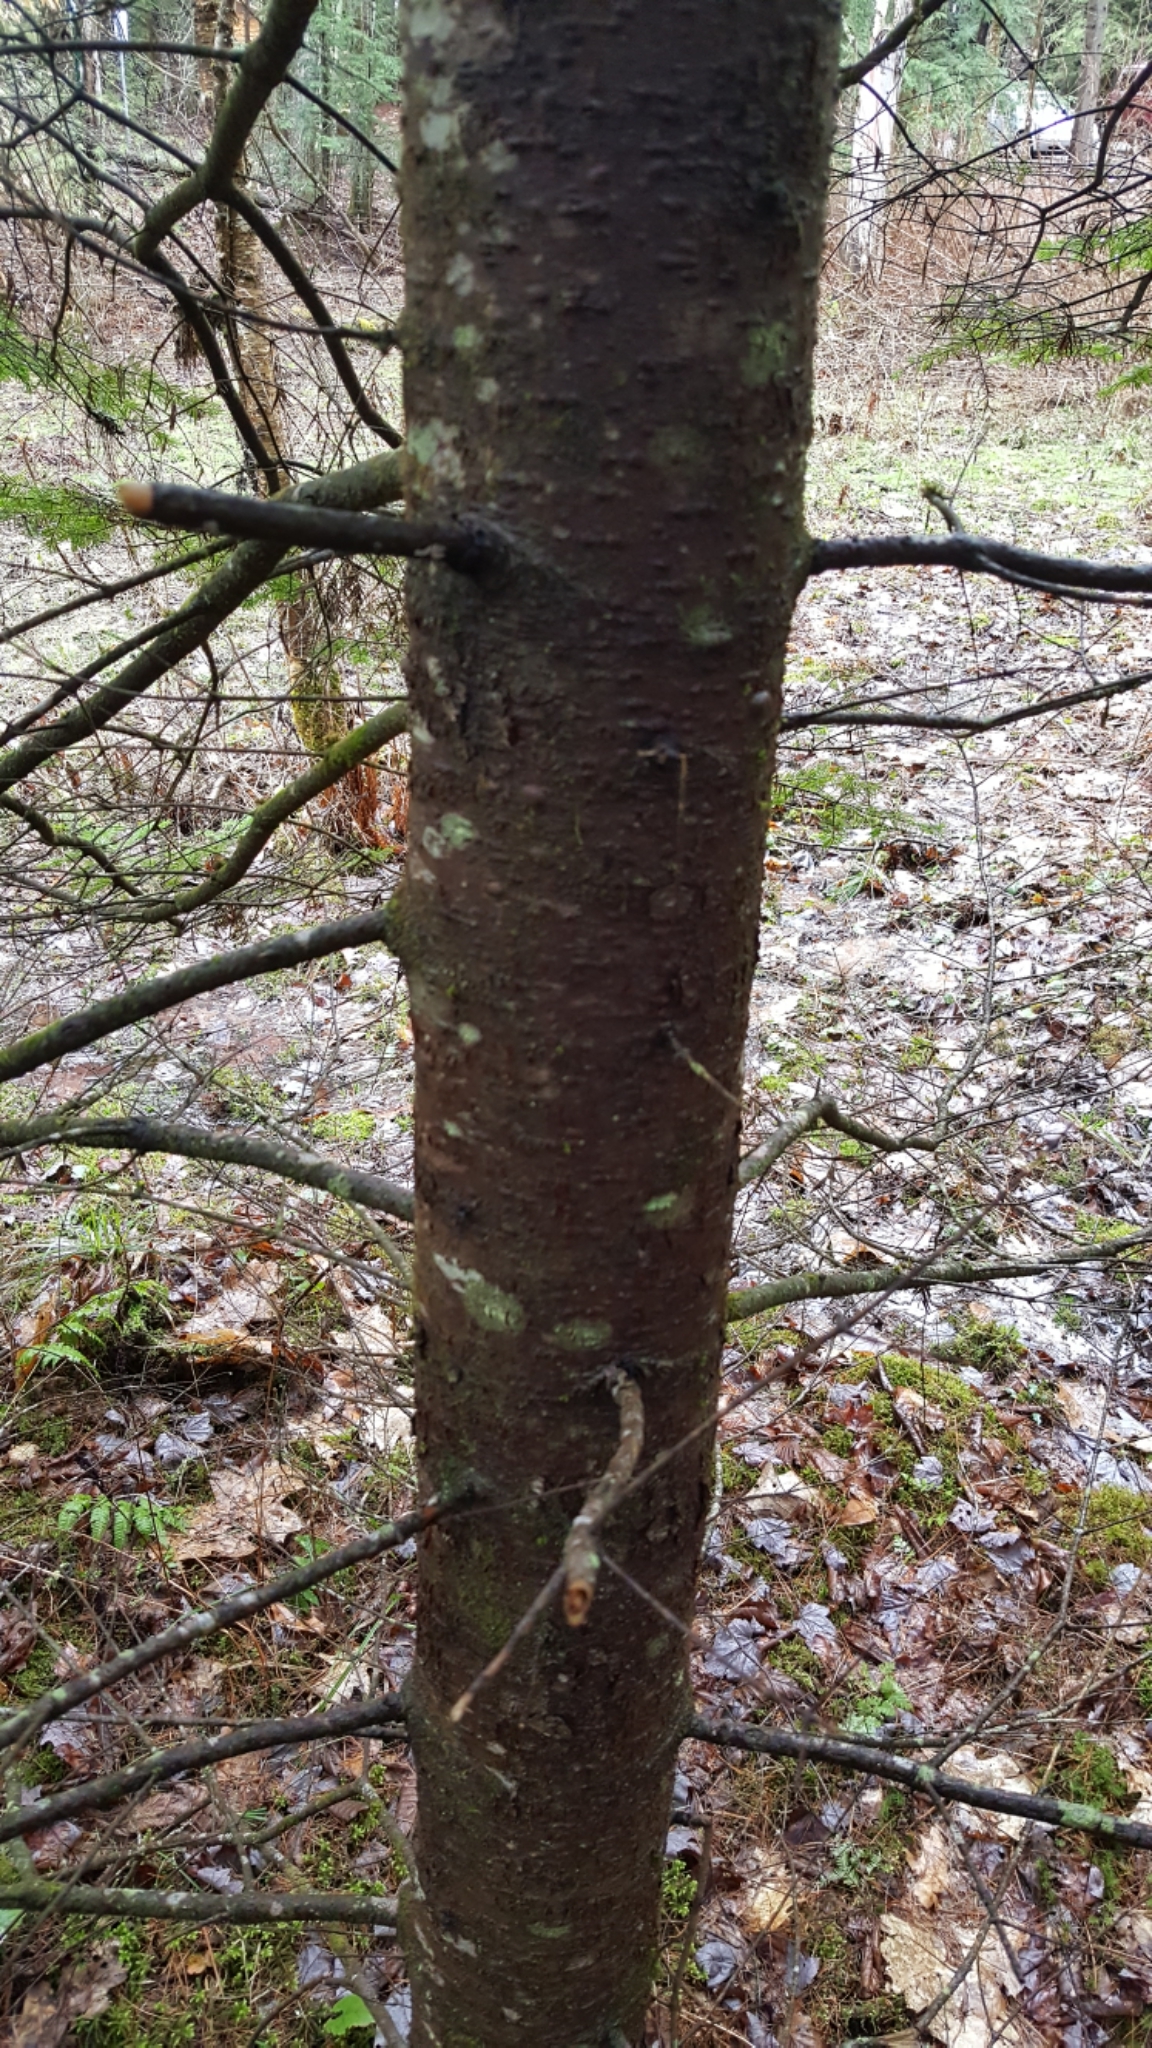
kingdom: Plantae
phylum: Tracheophyta
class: Pinopsida
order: Pinales
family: Pinaceae
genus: Abies
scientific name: Abies balsamea
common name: Balsam fir
